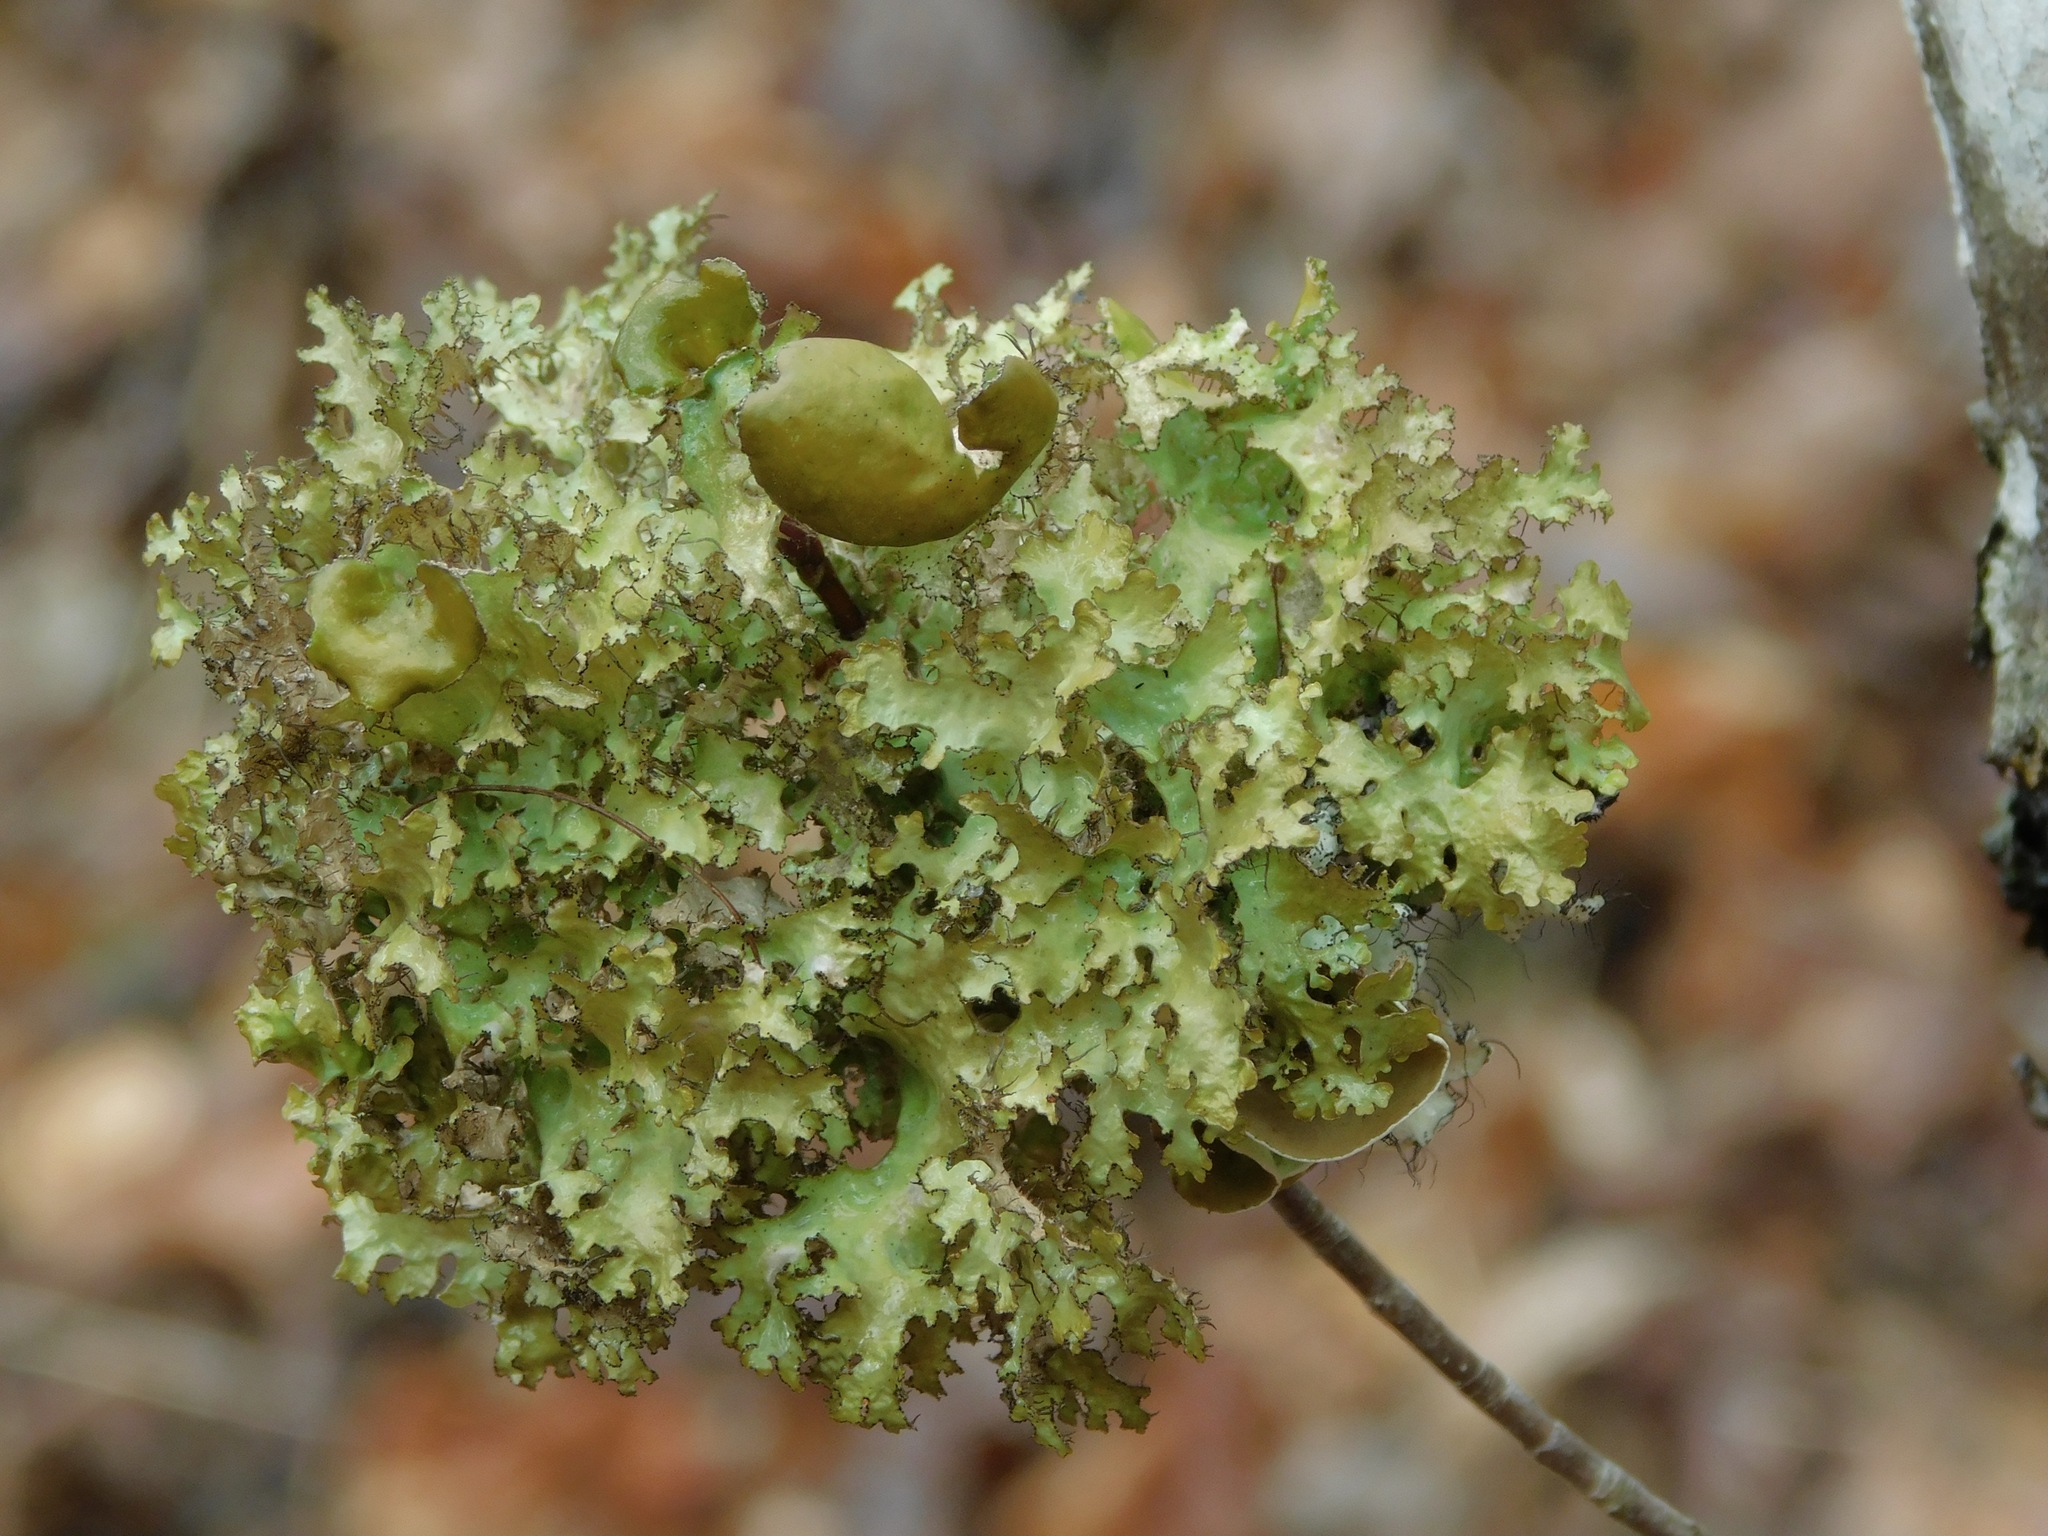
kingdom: Fungi
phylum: Ascomycota
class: Lecanoromycetes
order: Lecanorales
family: Parmeliaceae
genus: Nephromopsis
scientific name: Nephromopsis orbata
